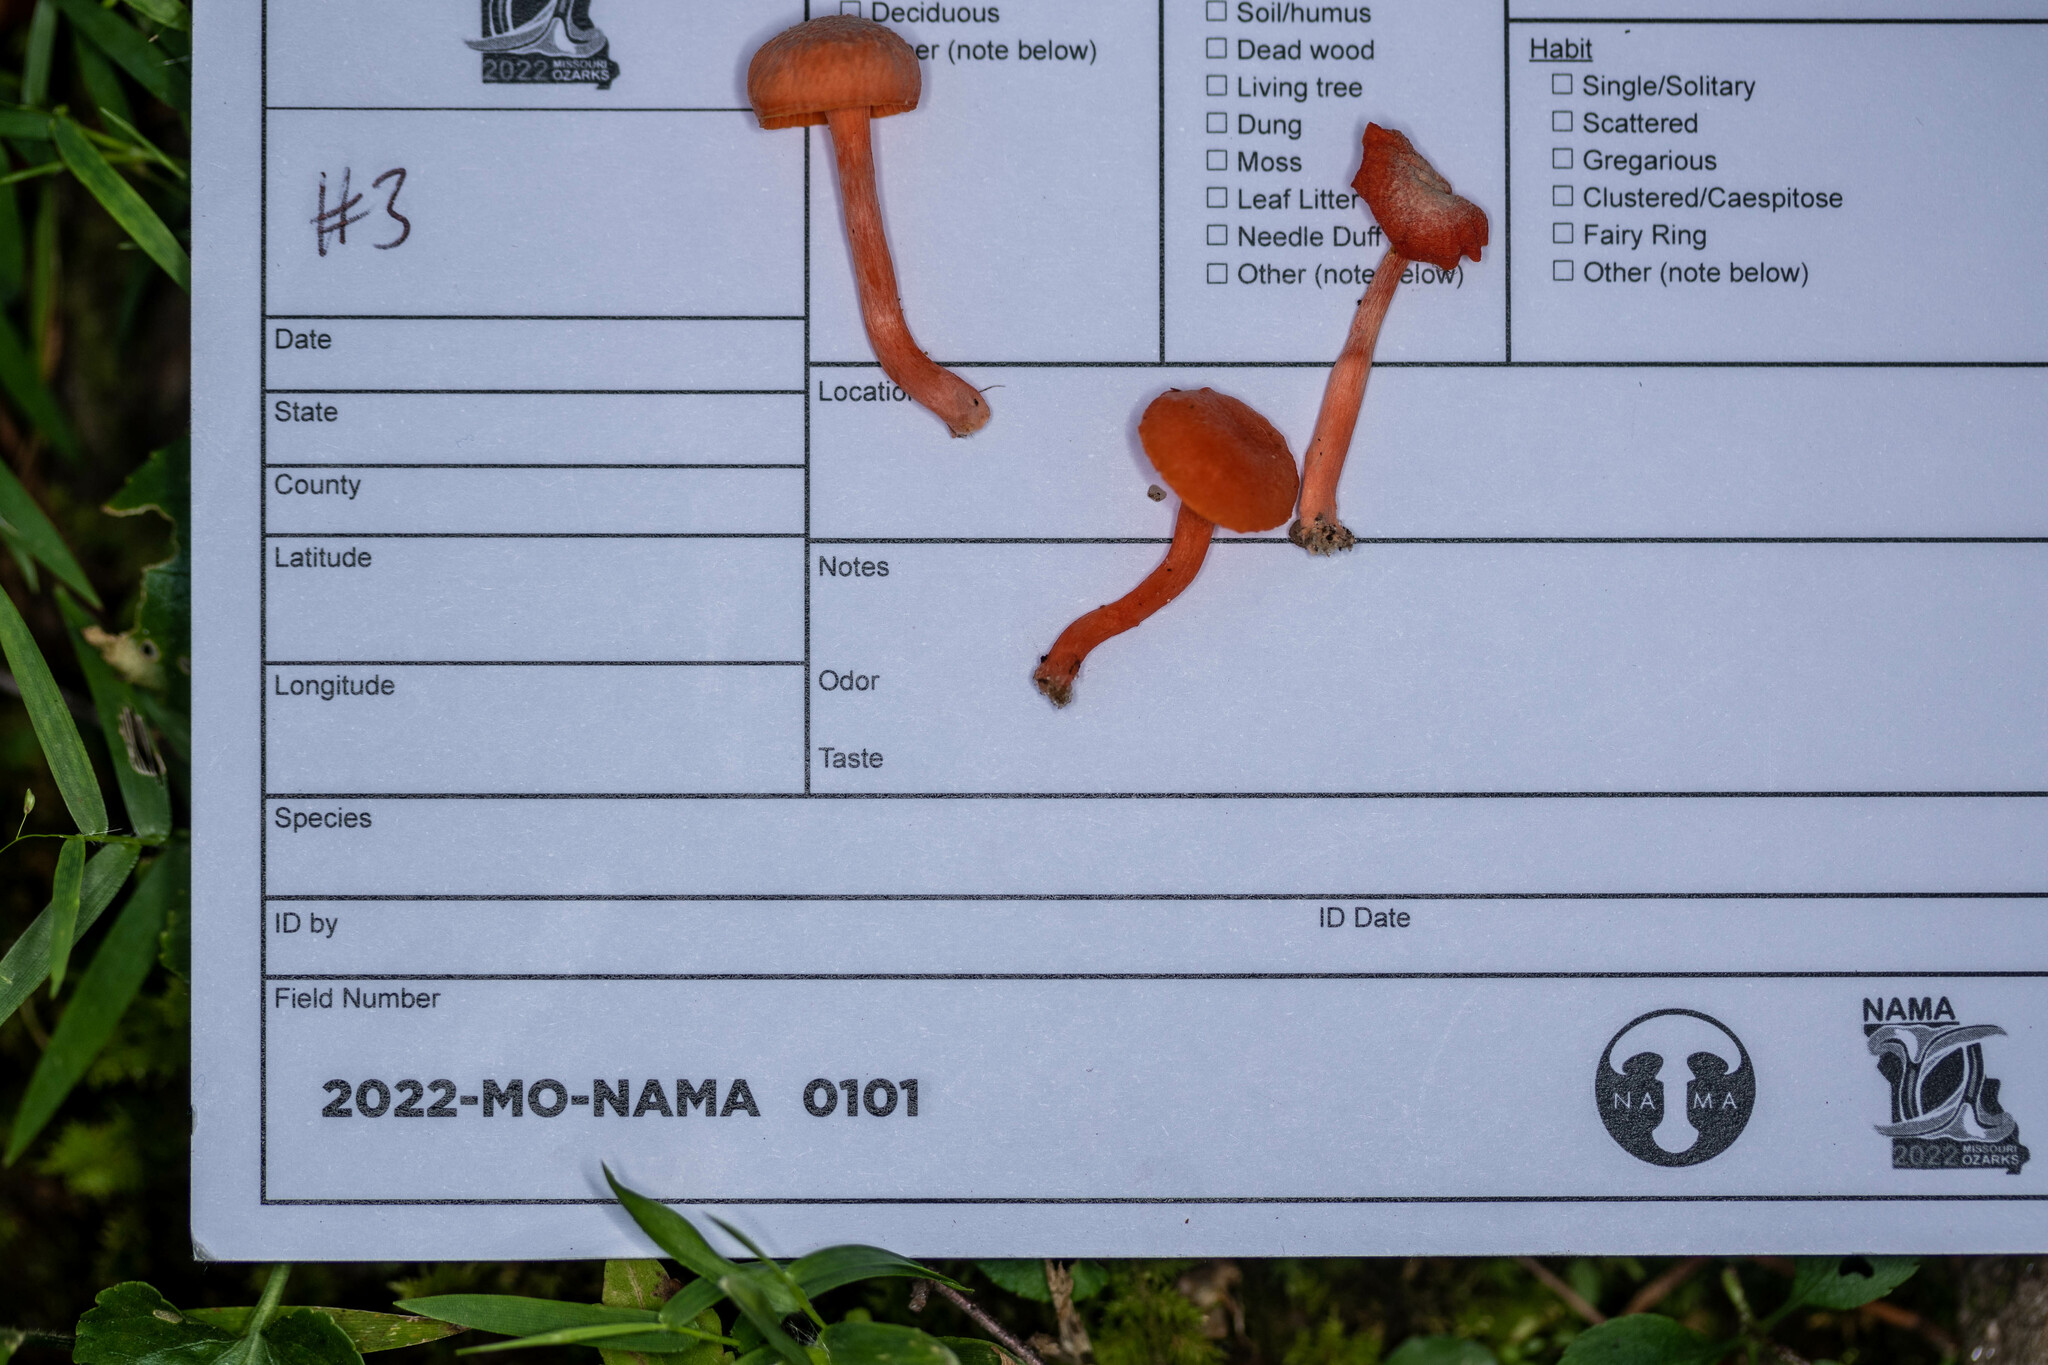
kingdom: Fungi
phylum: Basidiomycota
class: Agaricomycetes
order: Cantharellales
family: Hydnaceae
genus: Cantharellus
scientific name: Cantharellus corallinus
